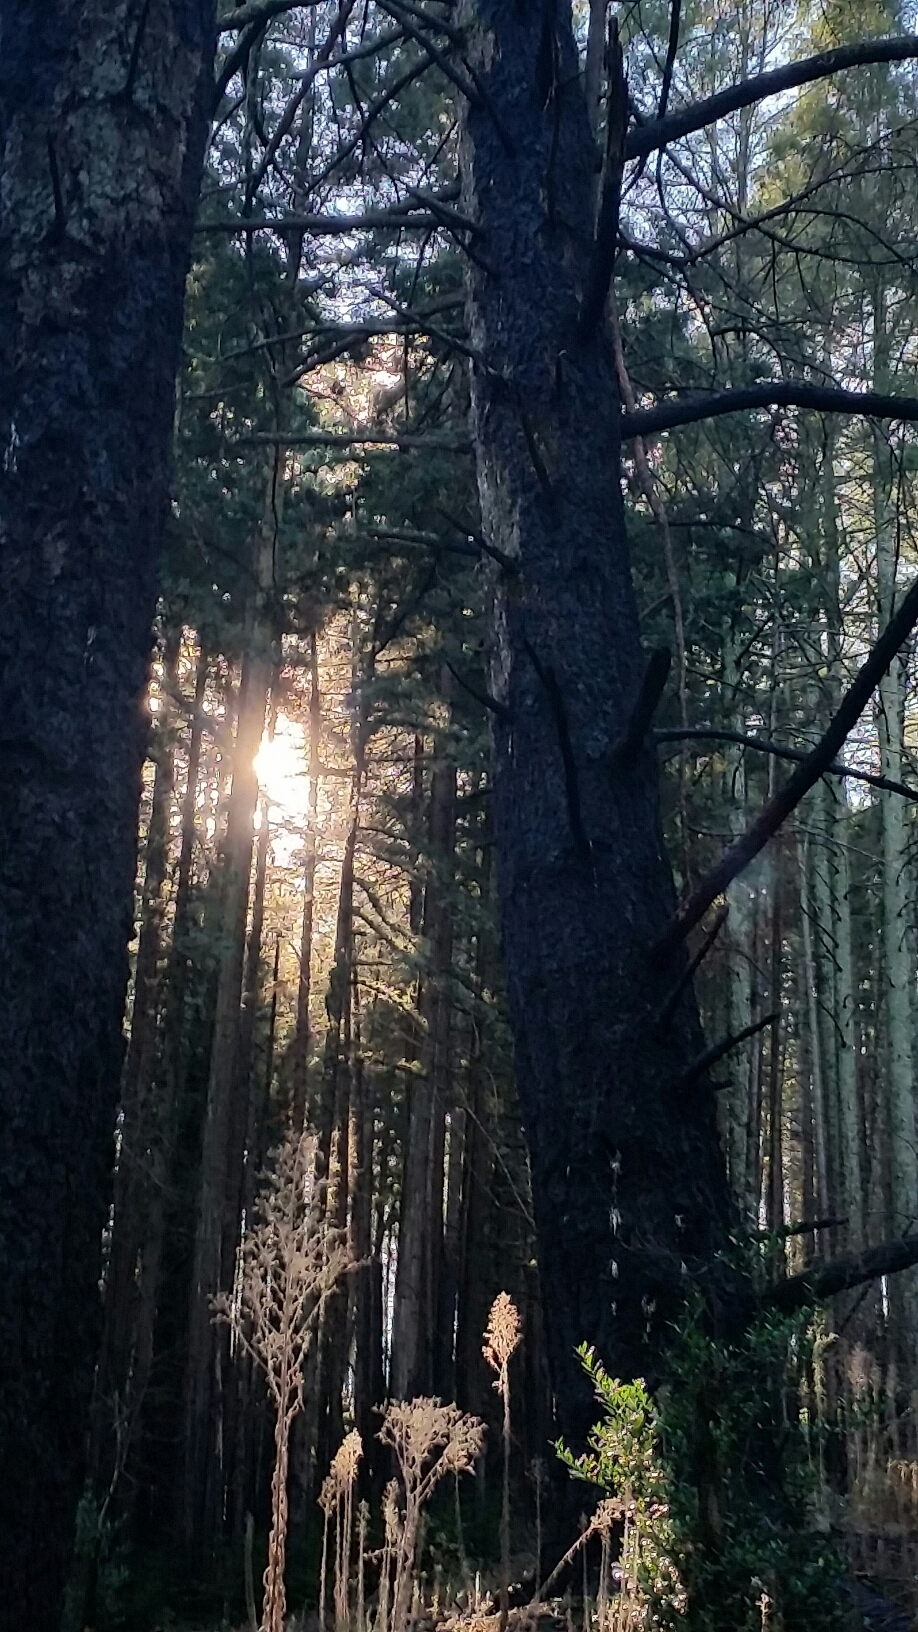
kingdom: Plantae
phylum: Tracheophyta
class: Pinopsida
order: Pinales
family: Pinaceae
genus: Pseudotsuga
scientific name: Pseudotsuga menziesii
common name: Douglas fir
